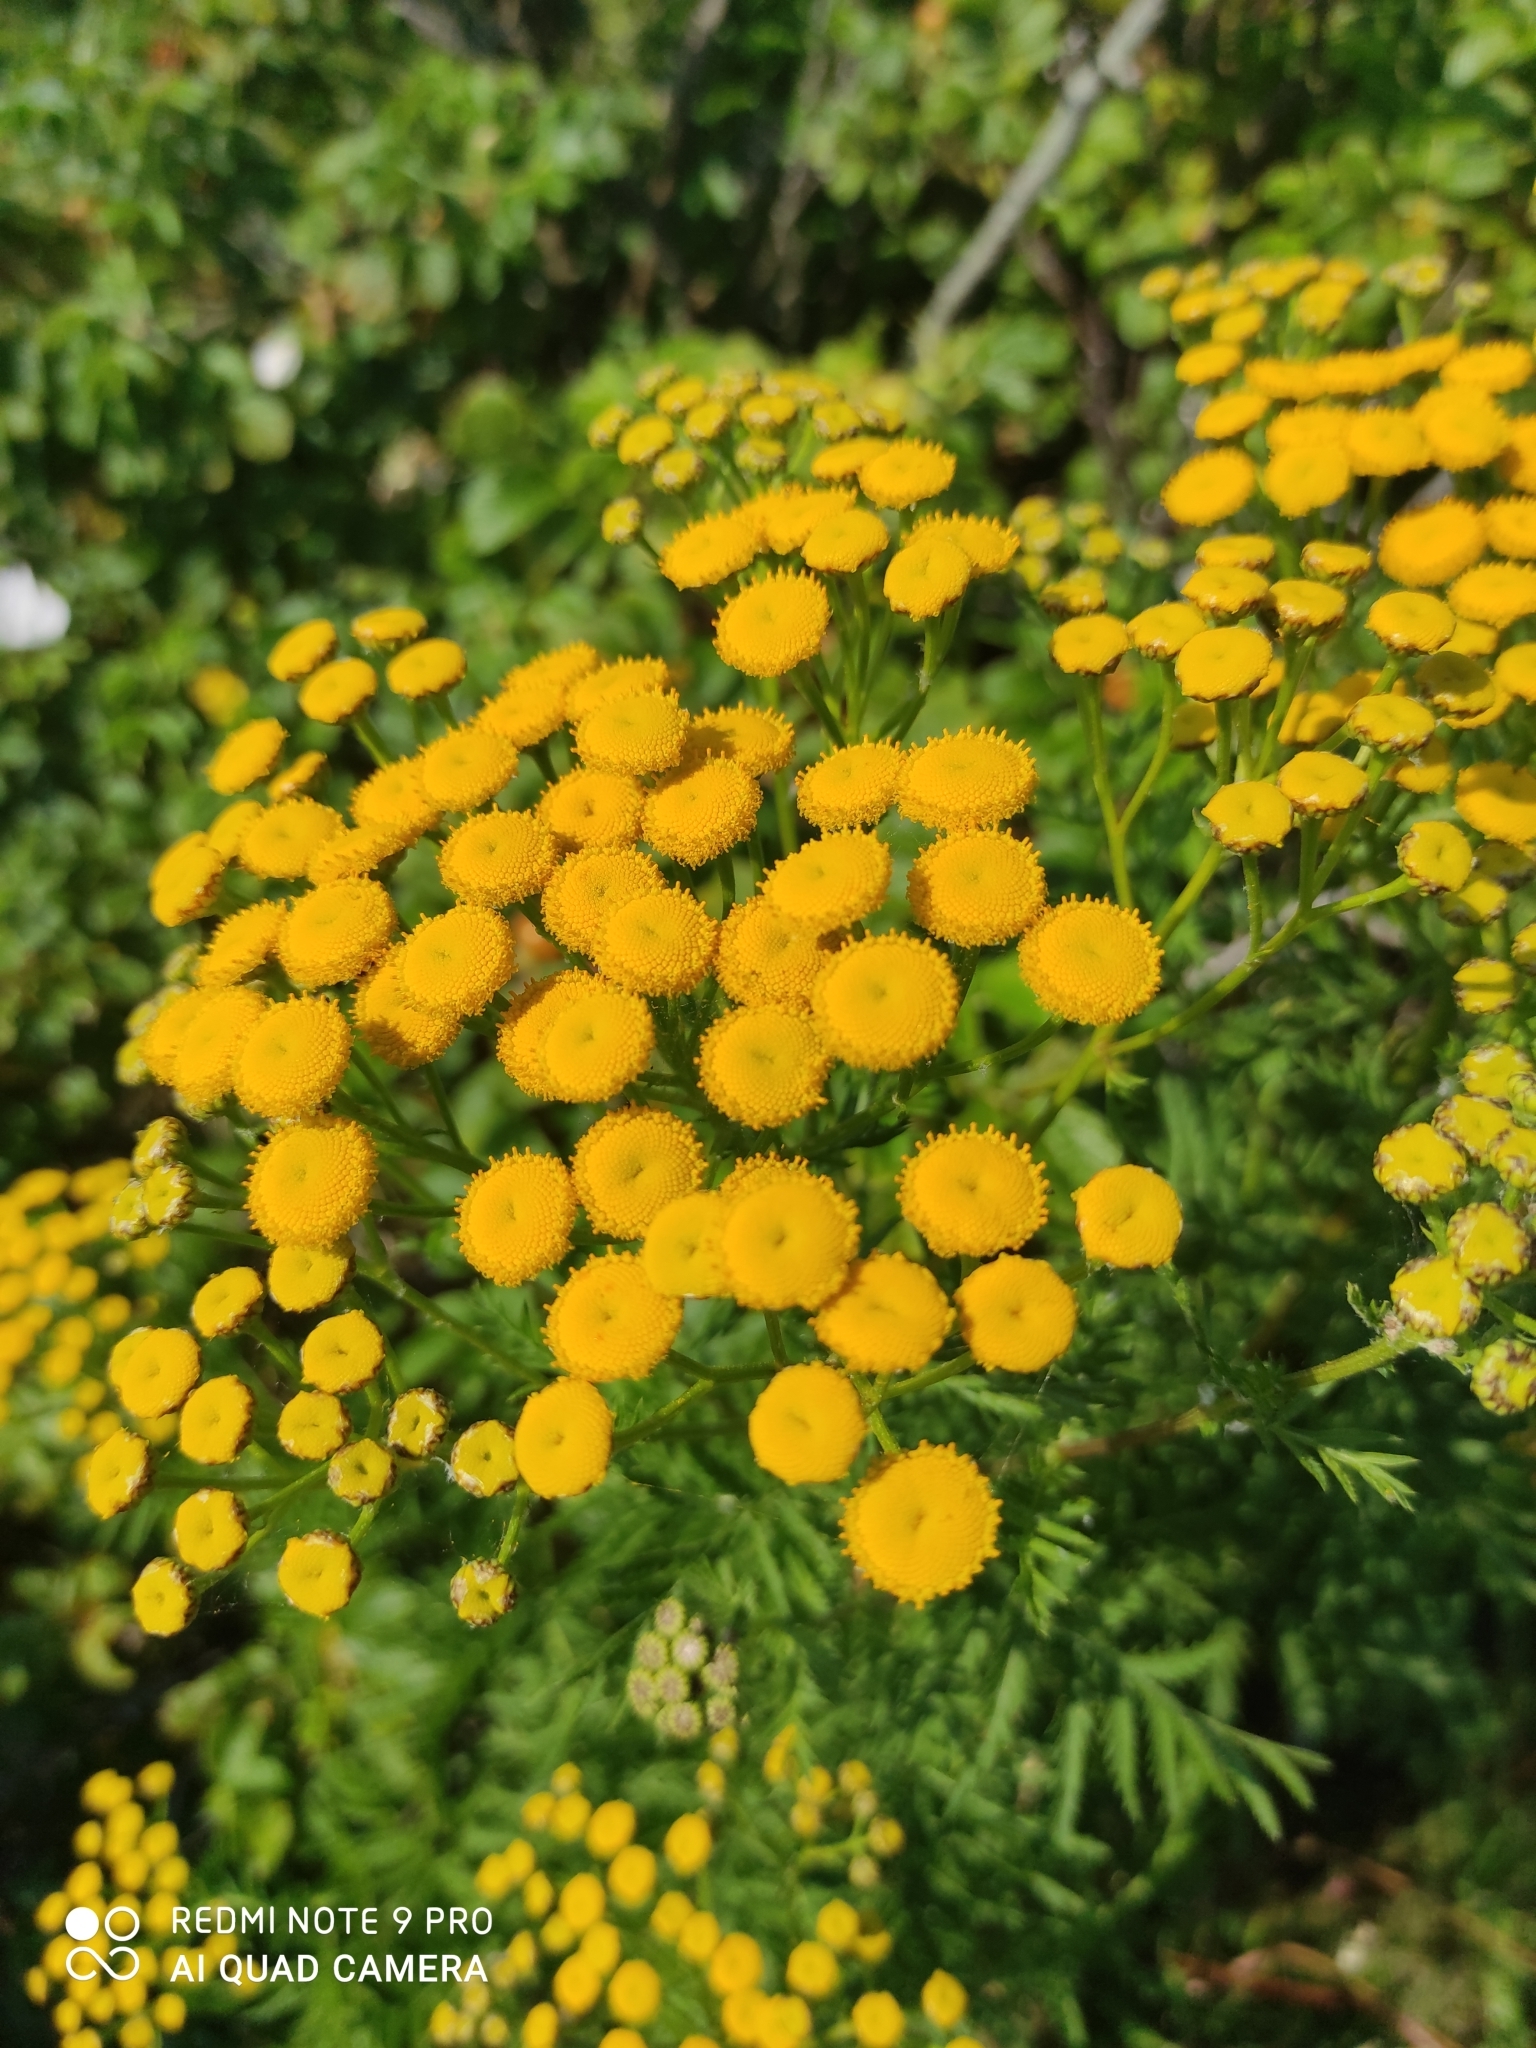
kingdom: Plantae
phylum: Tracheophyta
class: Magnoliopsida
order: Asterales
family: Asteraceae
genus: Tanacetum
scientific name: Tanacetum vulgare
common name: Common tansy
